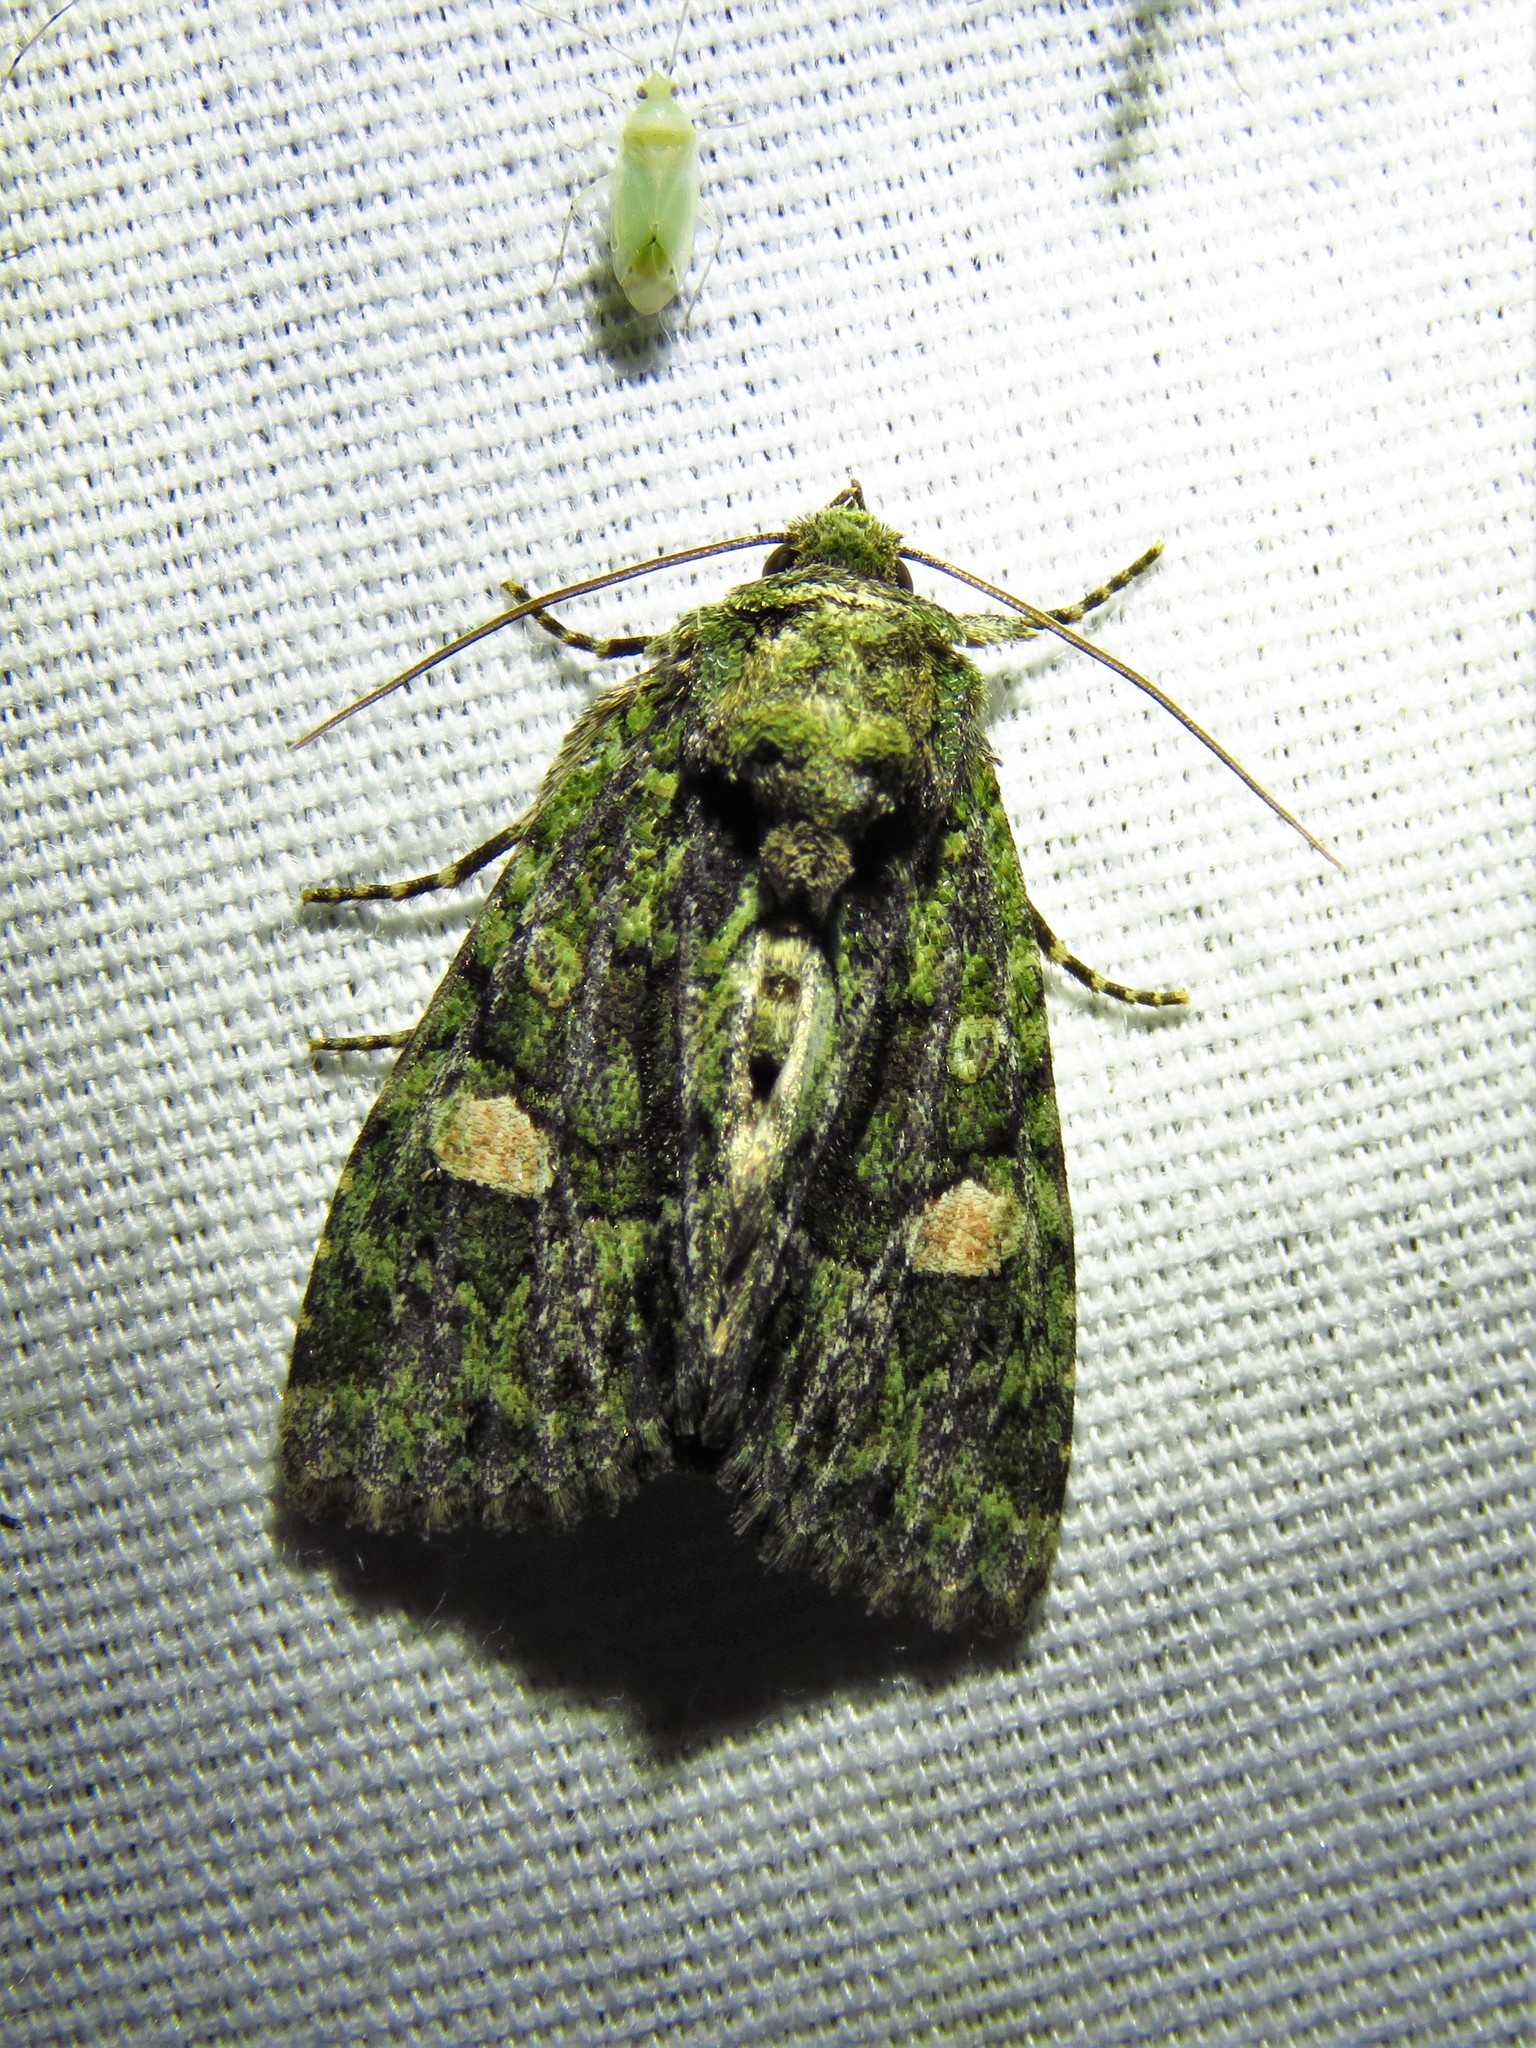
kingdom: Animalia
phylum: Arthropoda
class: Insecta
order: Lepidoptera
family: Noctuidae
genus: Phosphila
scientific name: Phosphila miselioides
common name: Spotted phosphila moth
